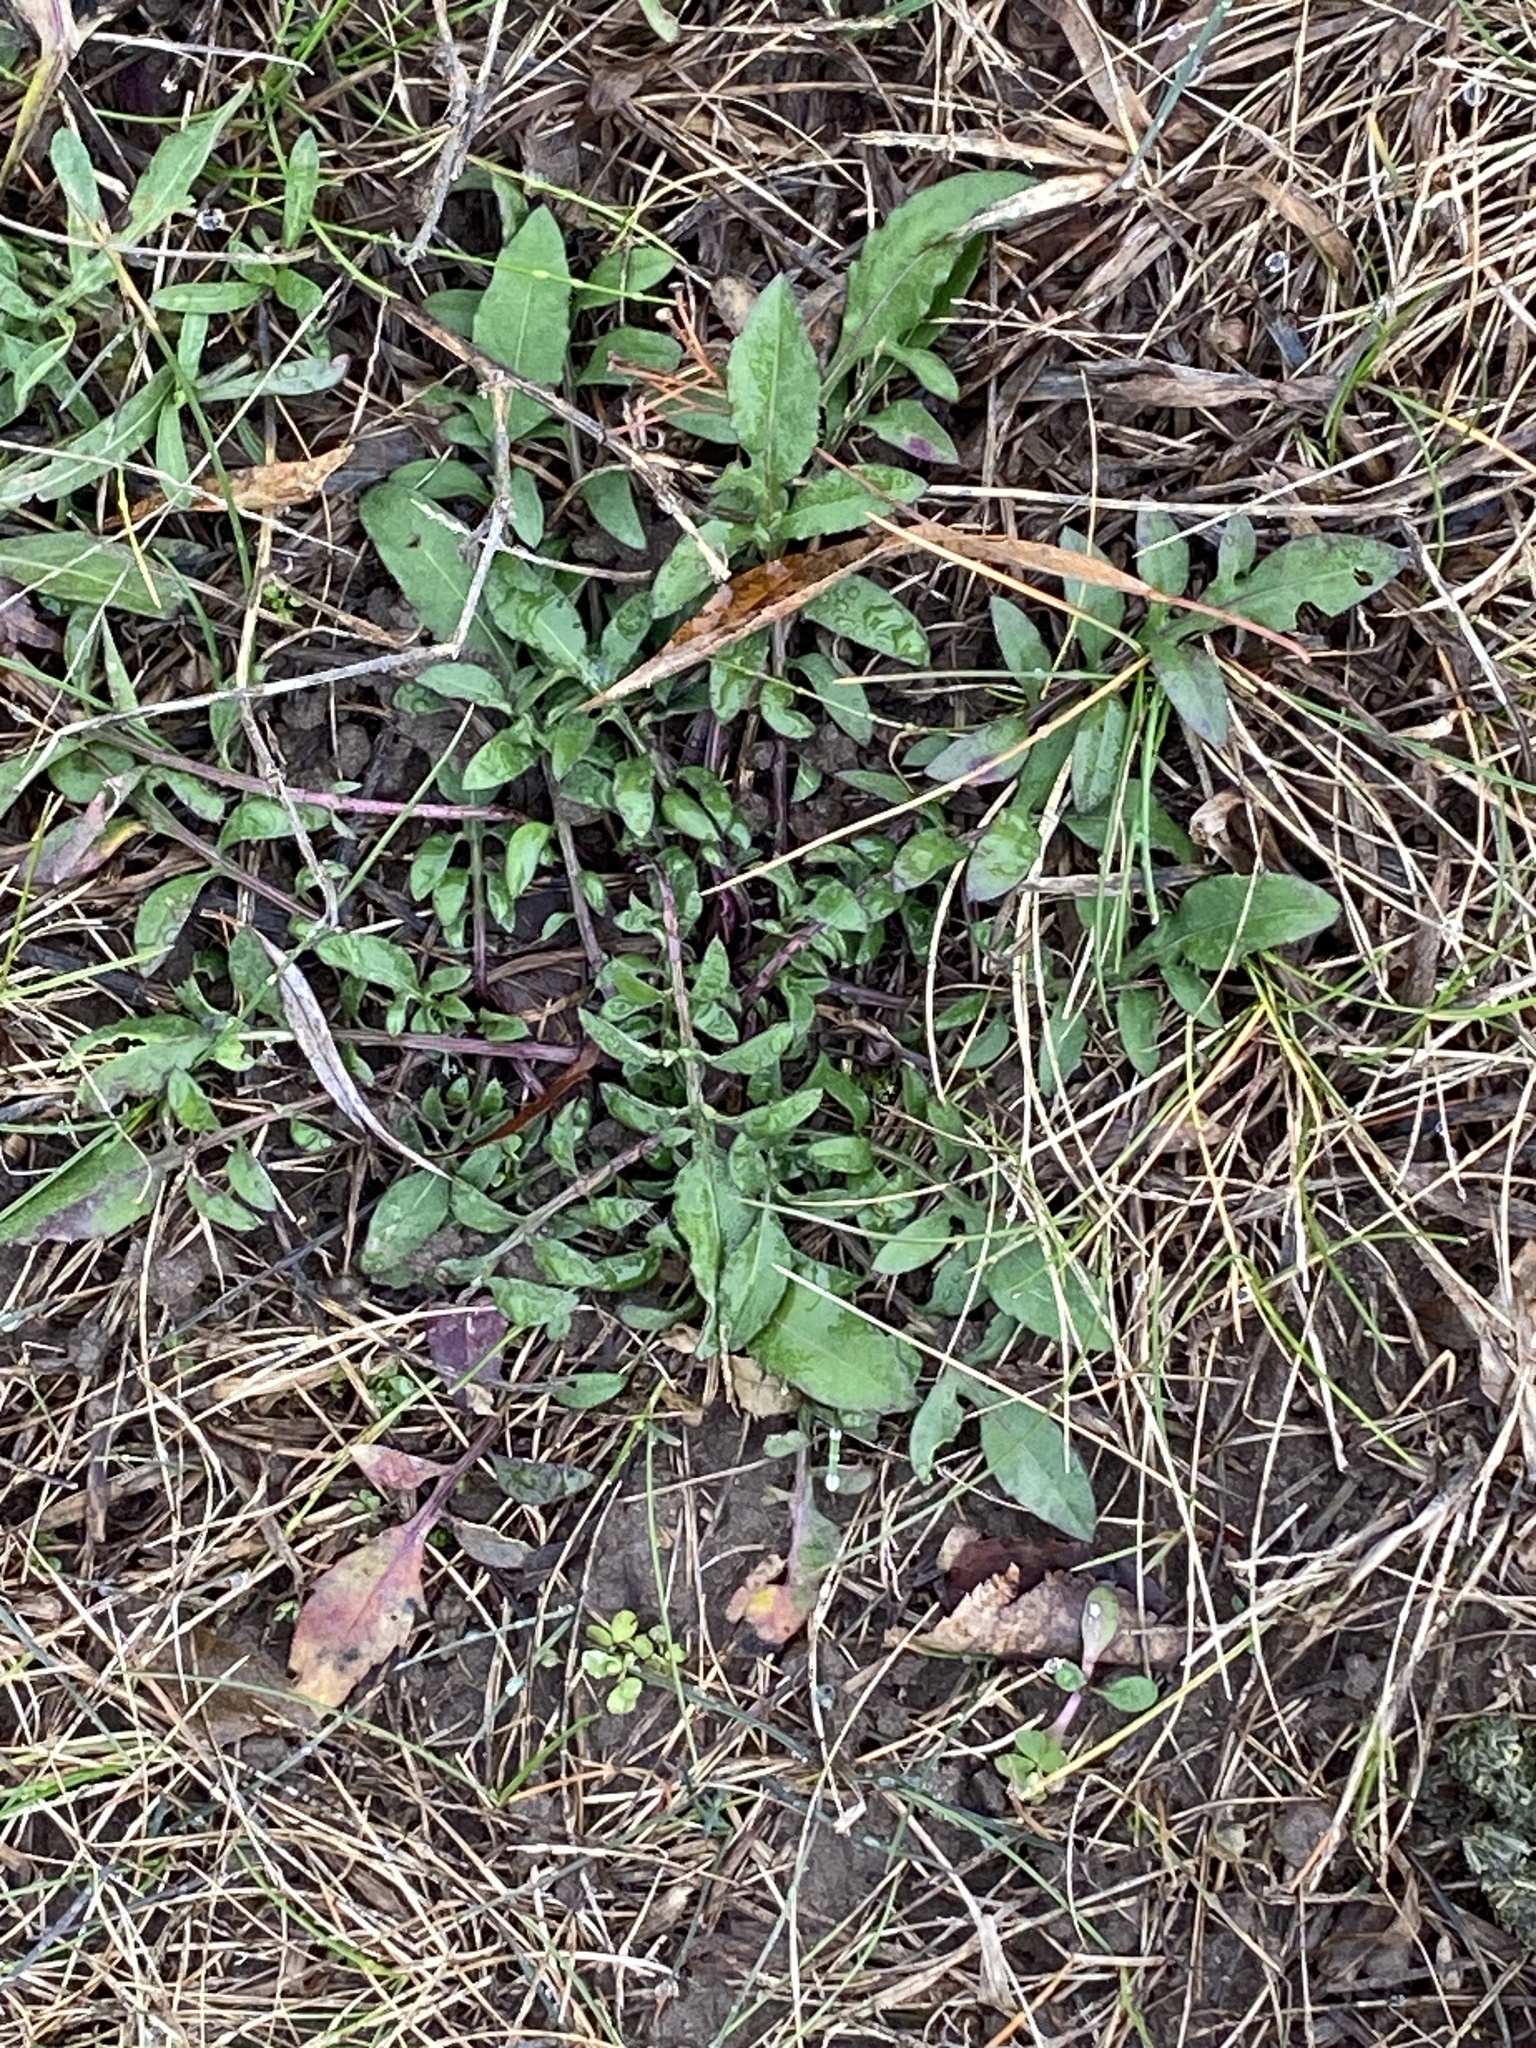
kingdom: Plantae
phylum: Tracheophyta
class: Magnoliopsida
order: Asterales
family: Asteraceae
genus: Centaurea
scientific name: Centaurea stoebe
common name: Spotted knapweed
